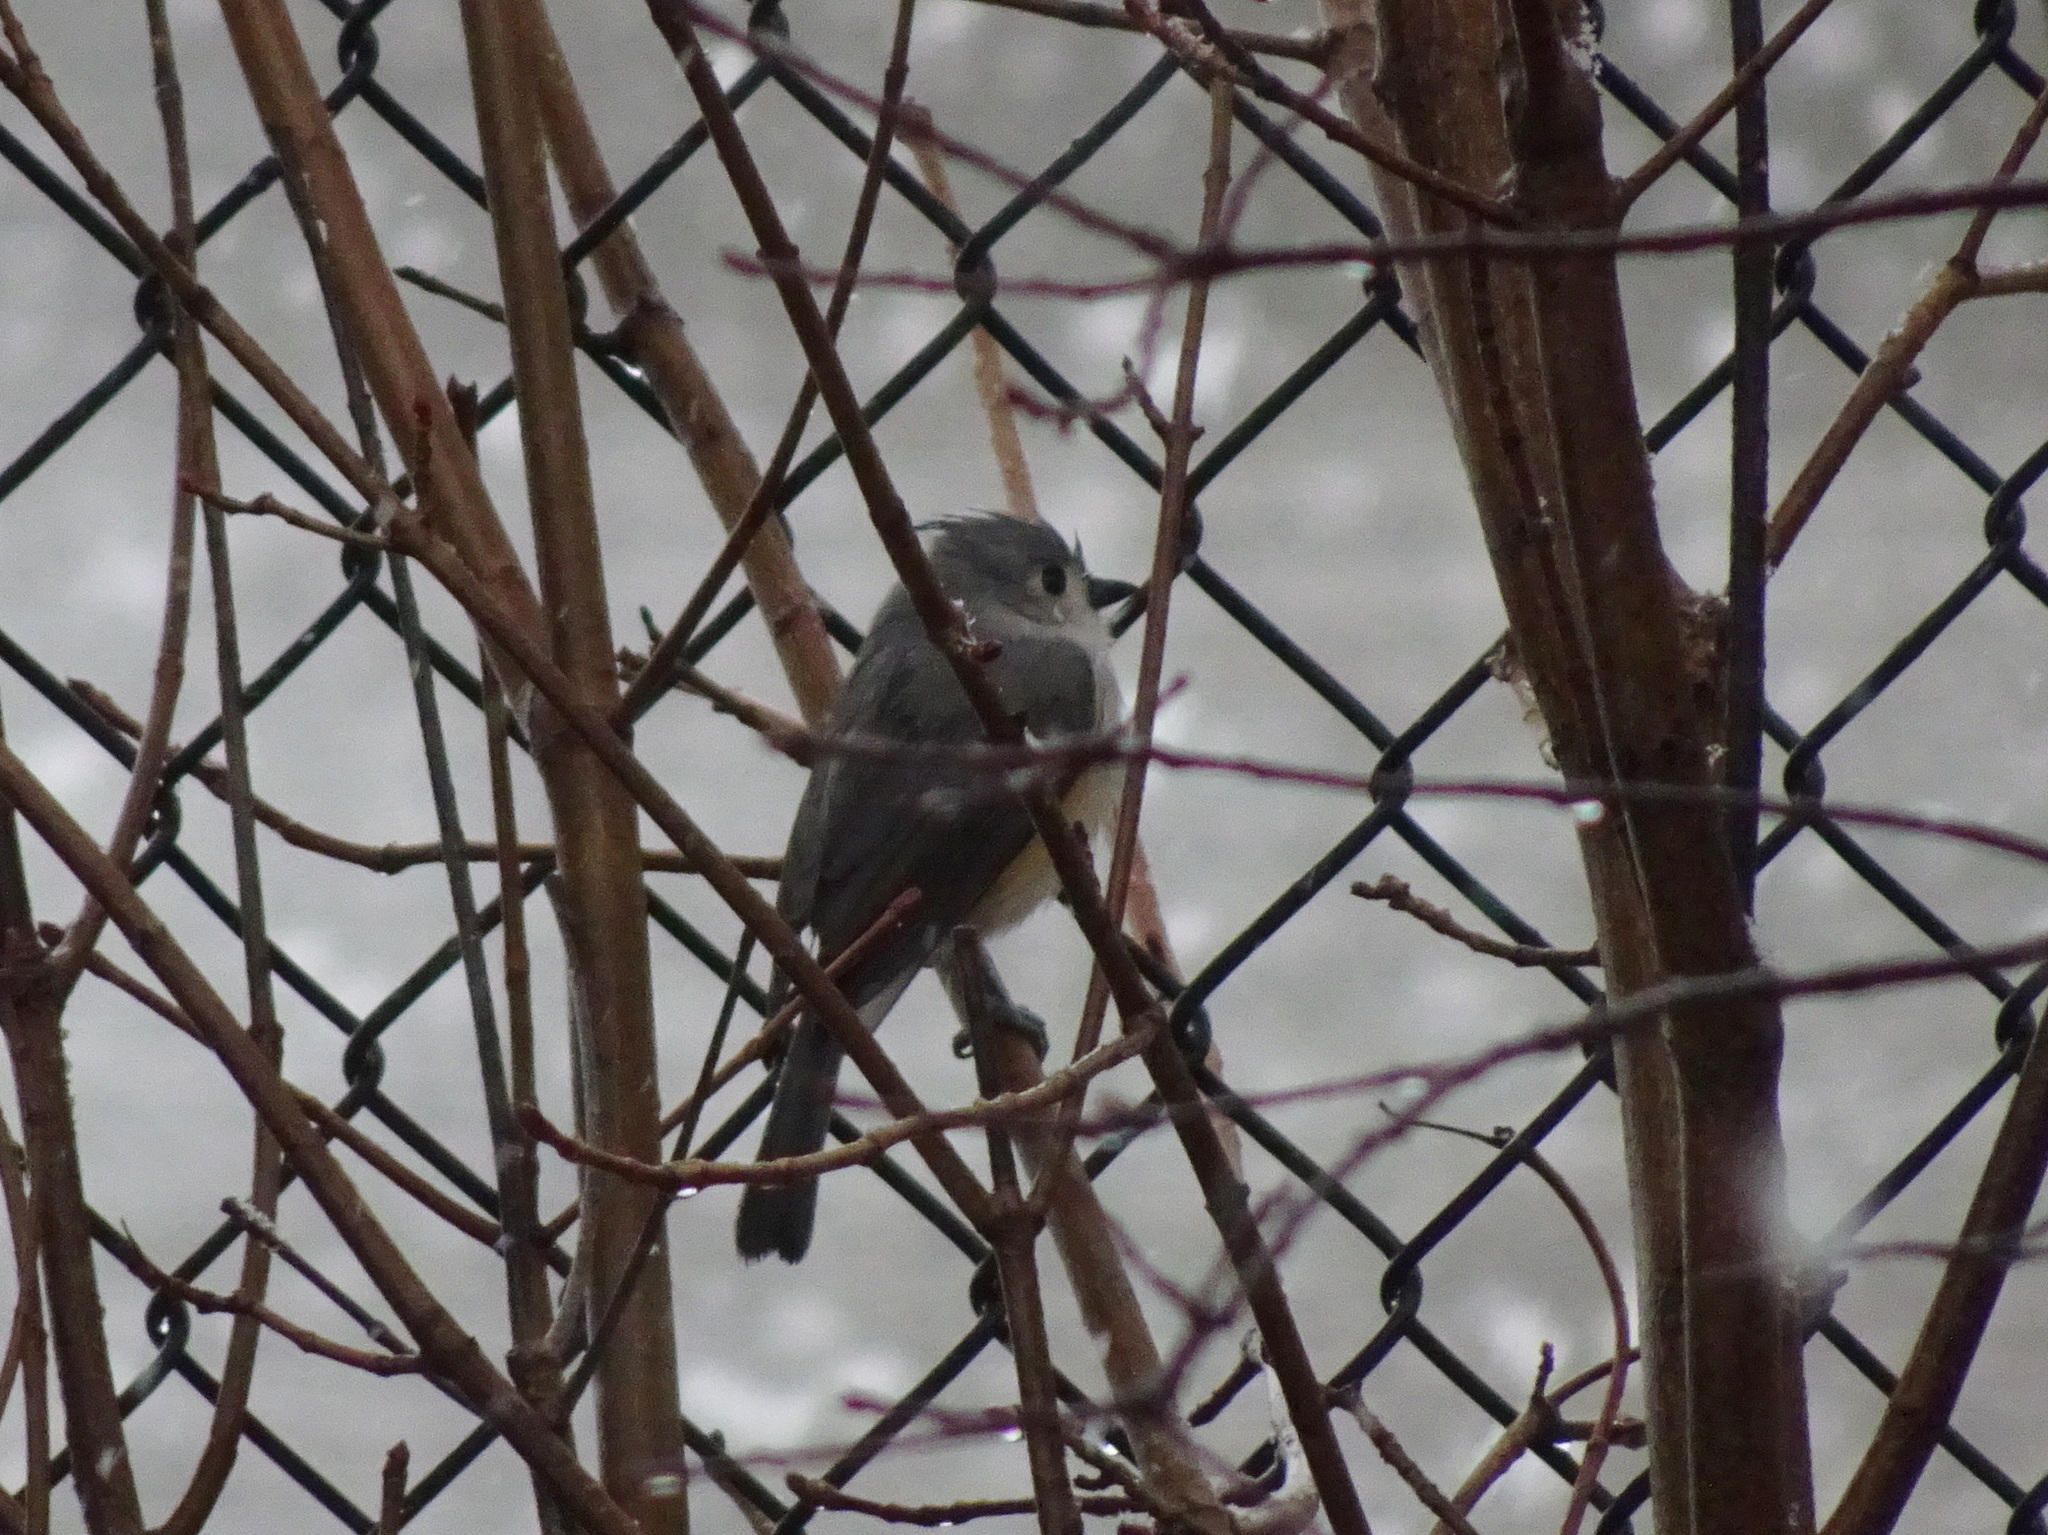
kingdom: Animalia
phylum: Chordata
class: Aves
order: Passeriformes
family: Paridae
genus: Baeolophus
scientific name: Baeolophus bicolor
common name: Tufted titmouse
